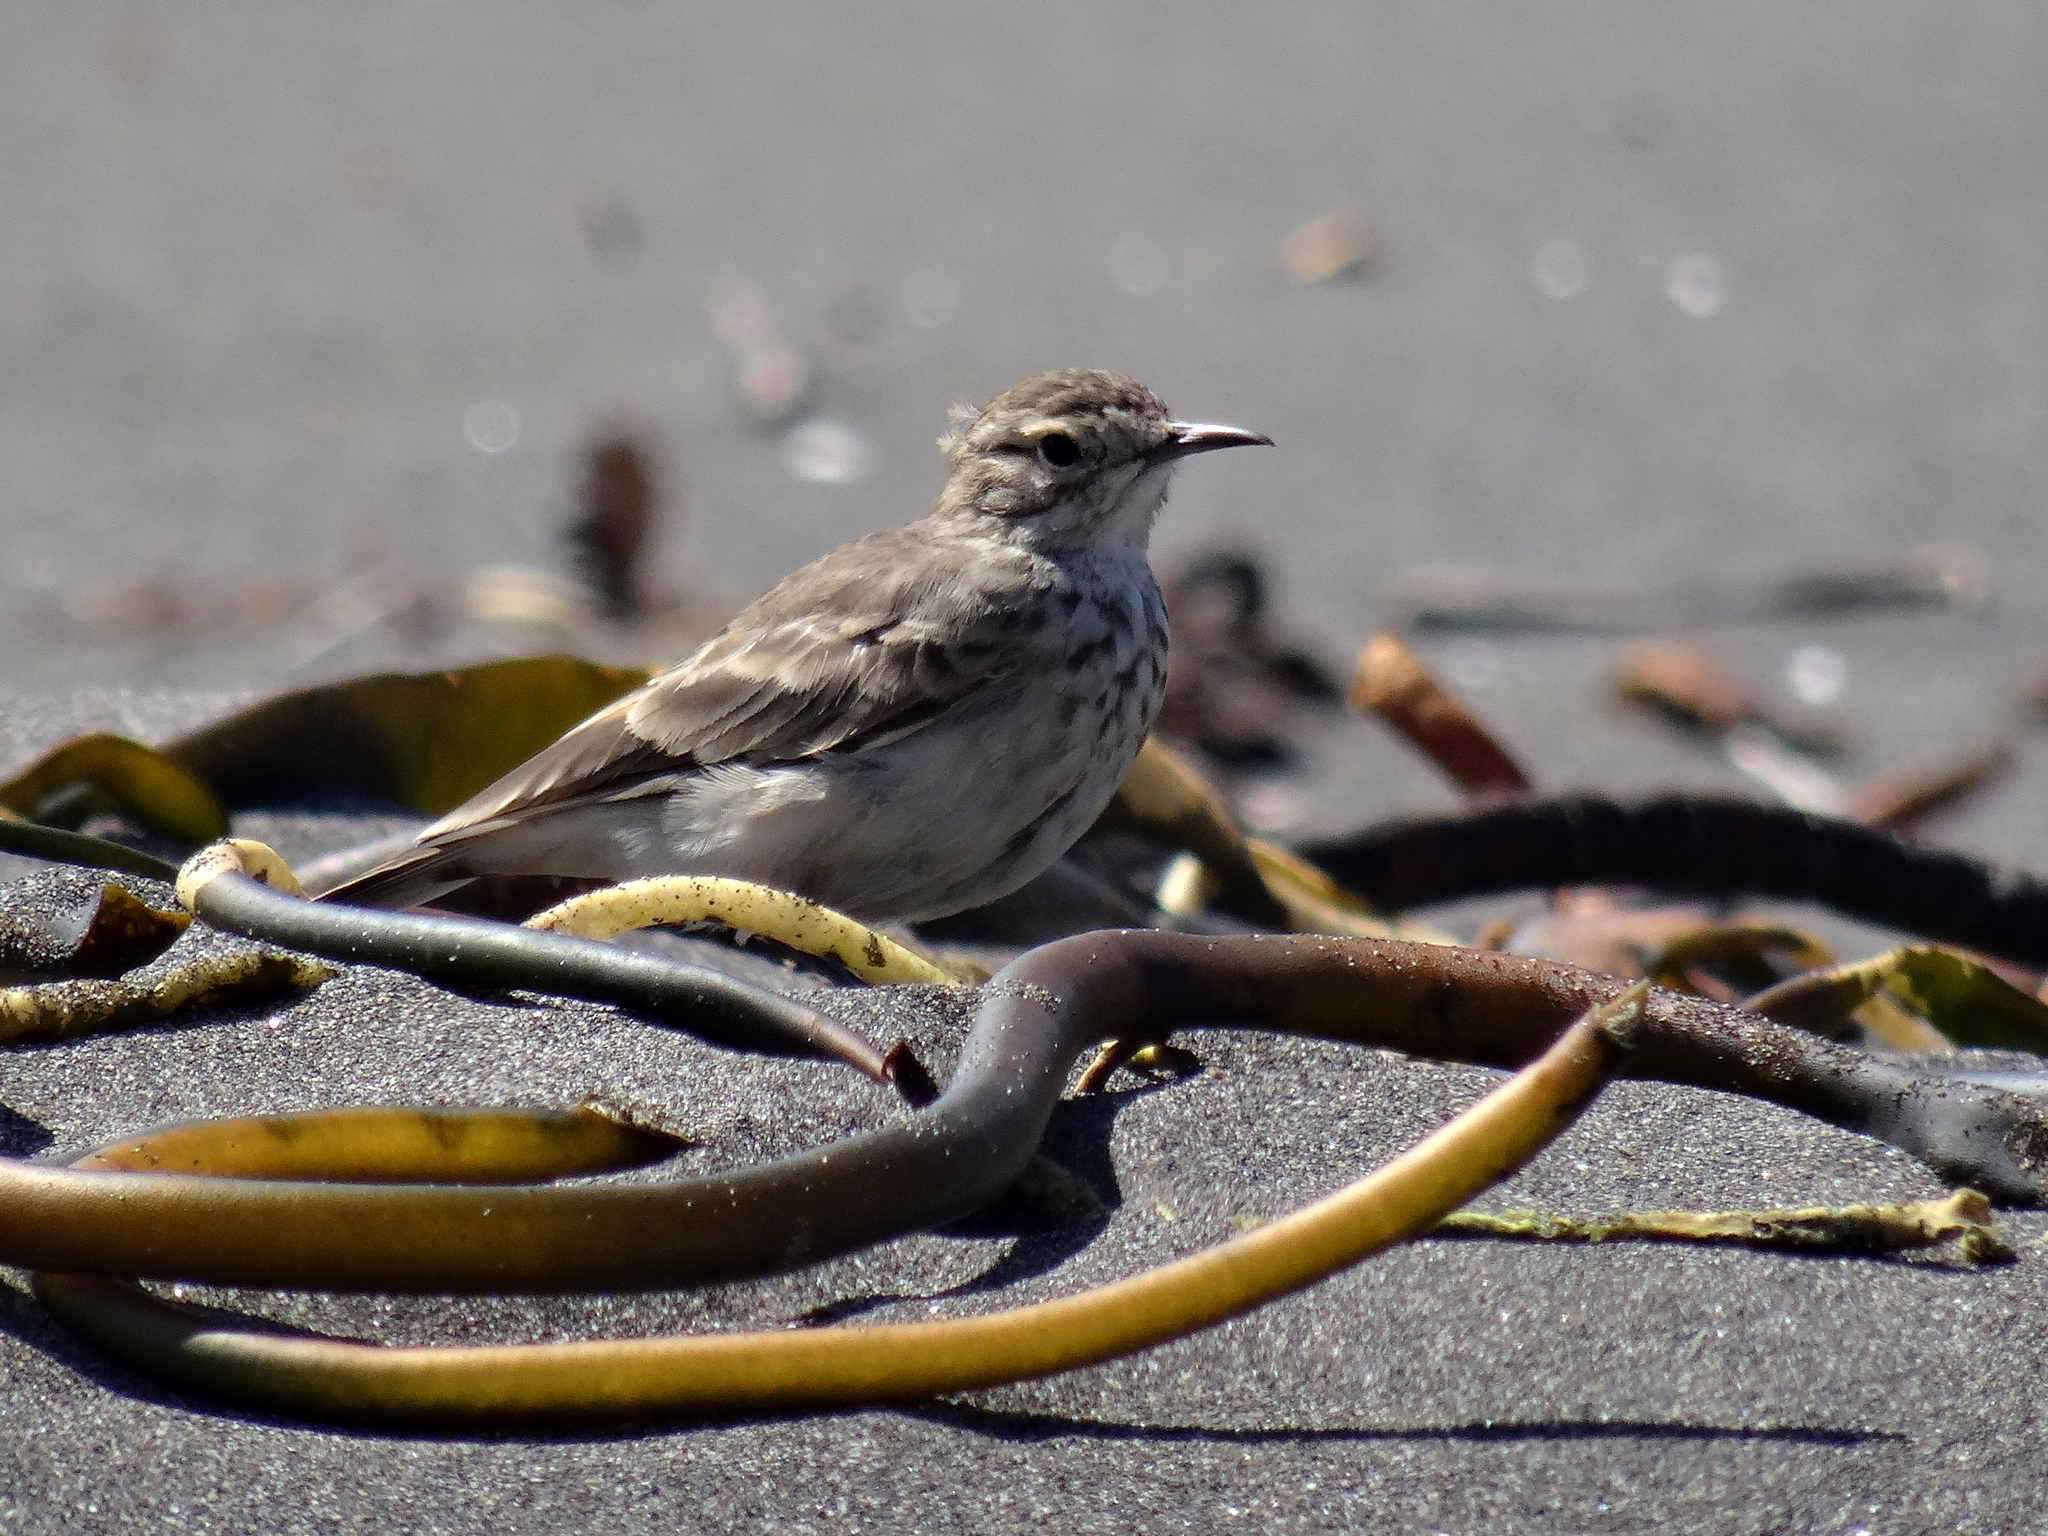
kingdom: Animalia
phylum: Chordata
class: Aves
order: Passeriformes
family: Furnariidae
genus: Geositta
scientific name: Geositta cunicularia
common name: Common miner
